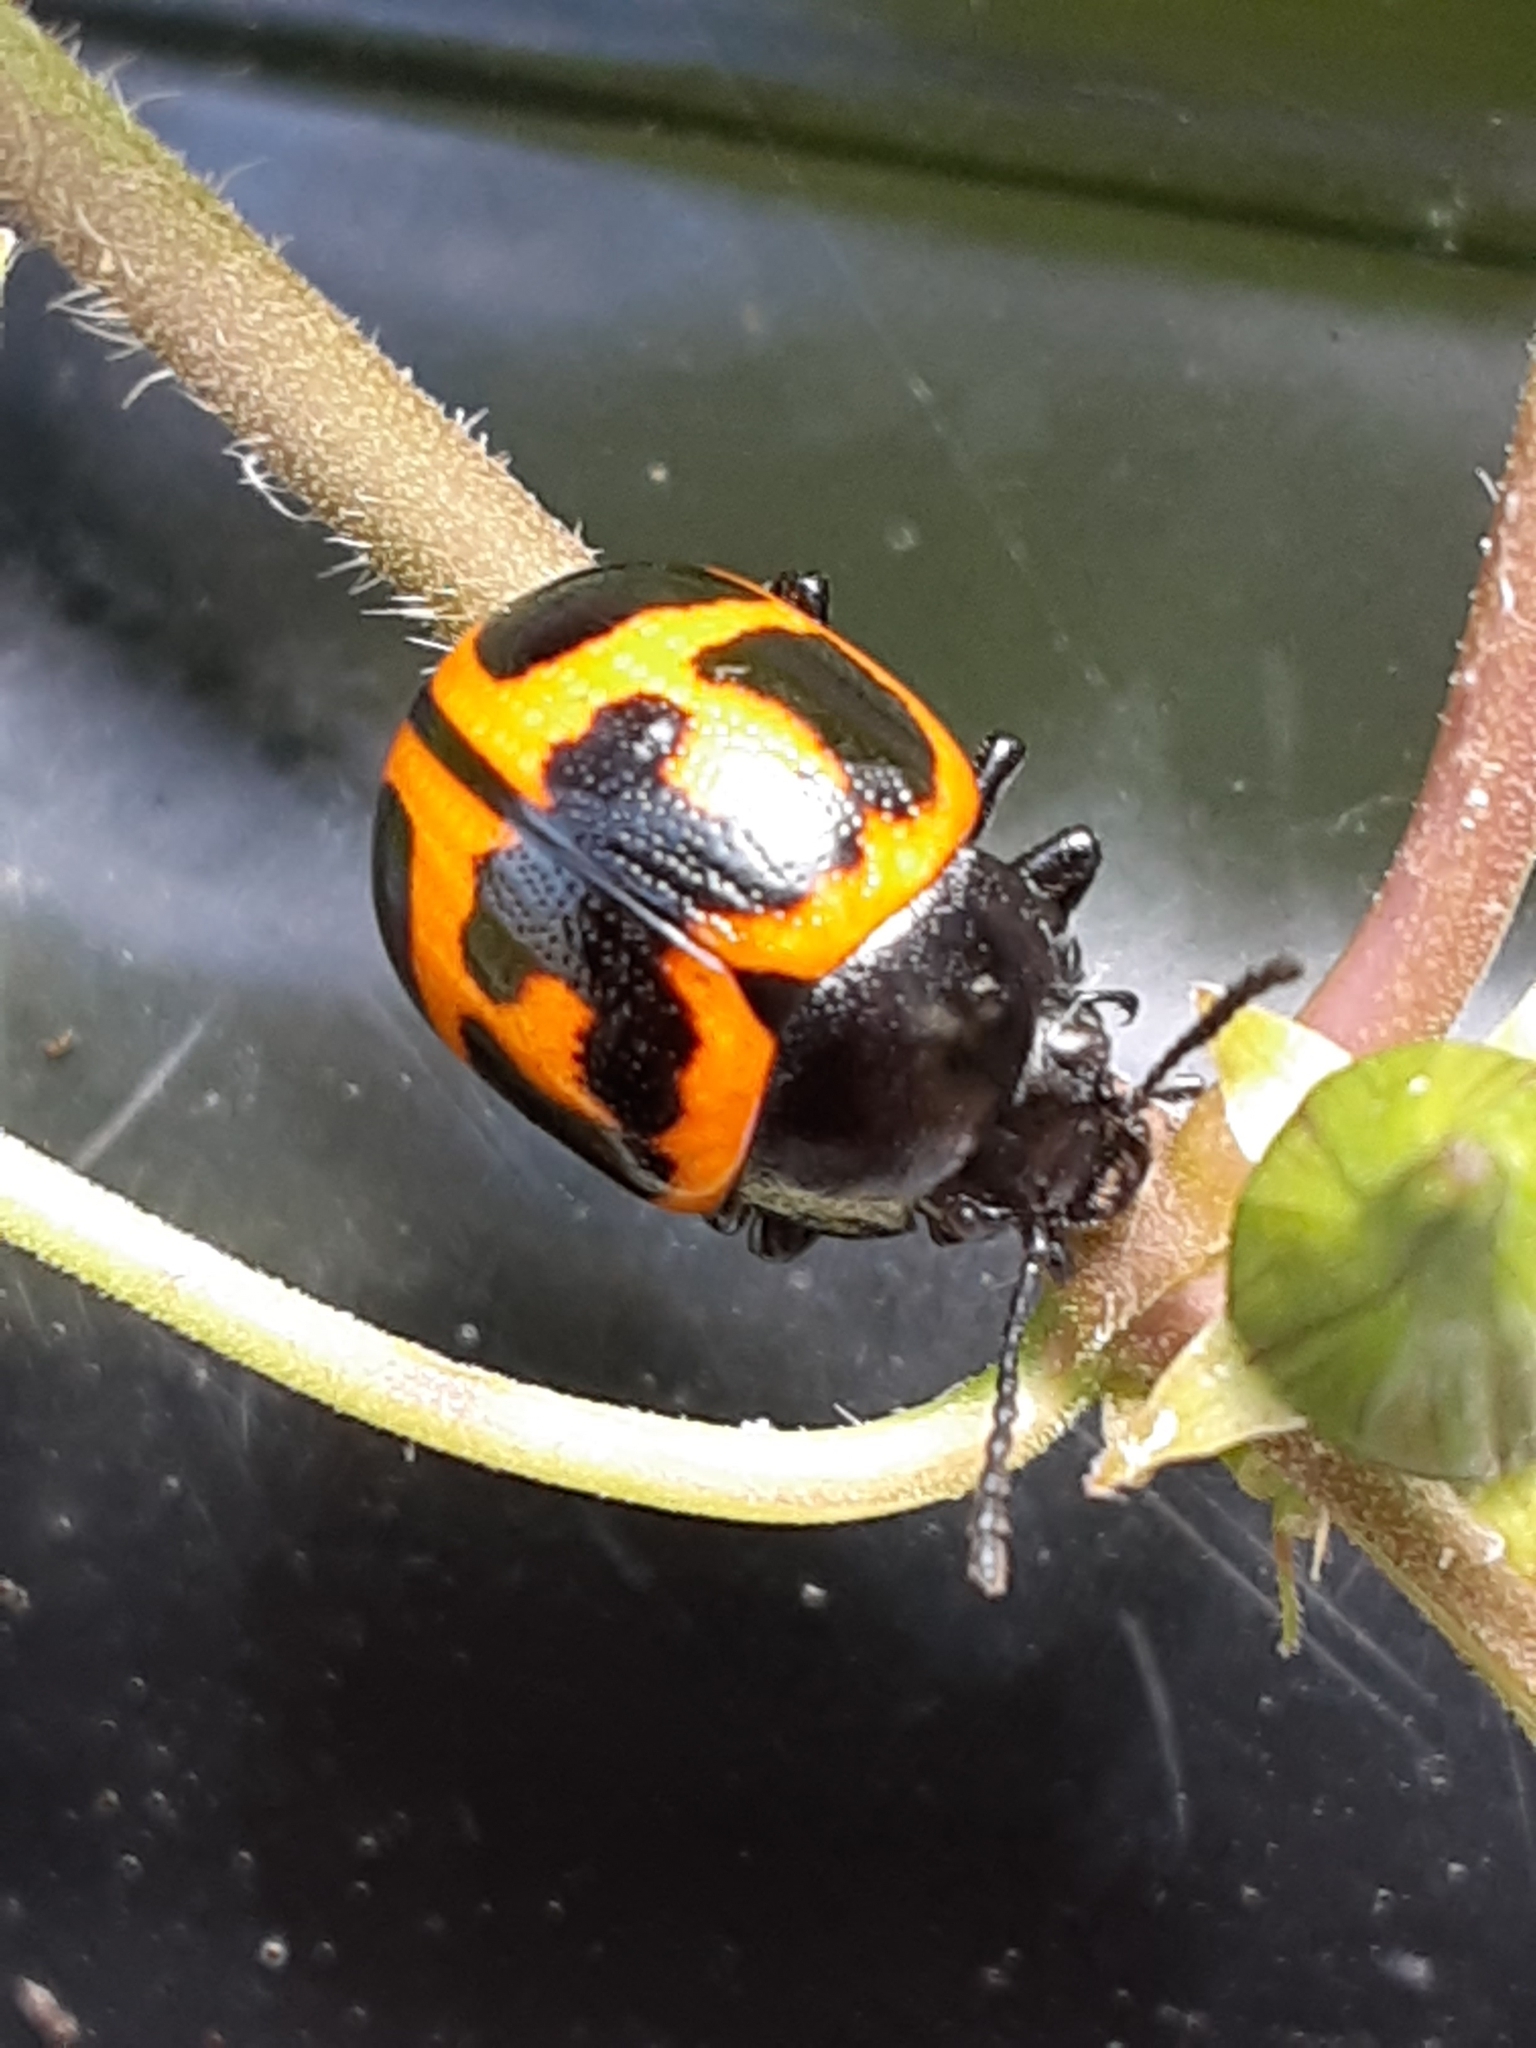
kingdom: Animalia
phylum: Arthropoda
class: Insecta
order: Coleoptera
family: Chrysomelidae
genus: Labidomera
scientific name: Labidomera clivicollis
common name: Swamp milkweed leaf beetle
